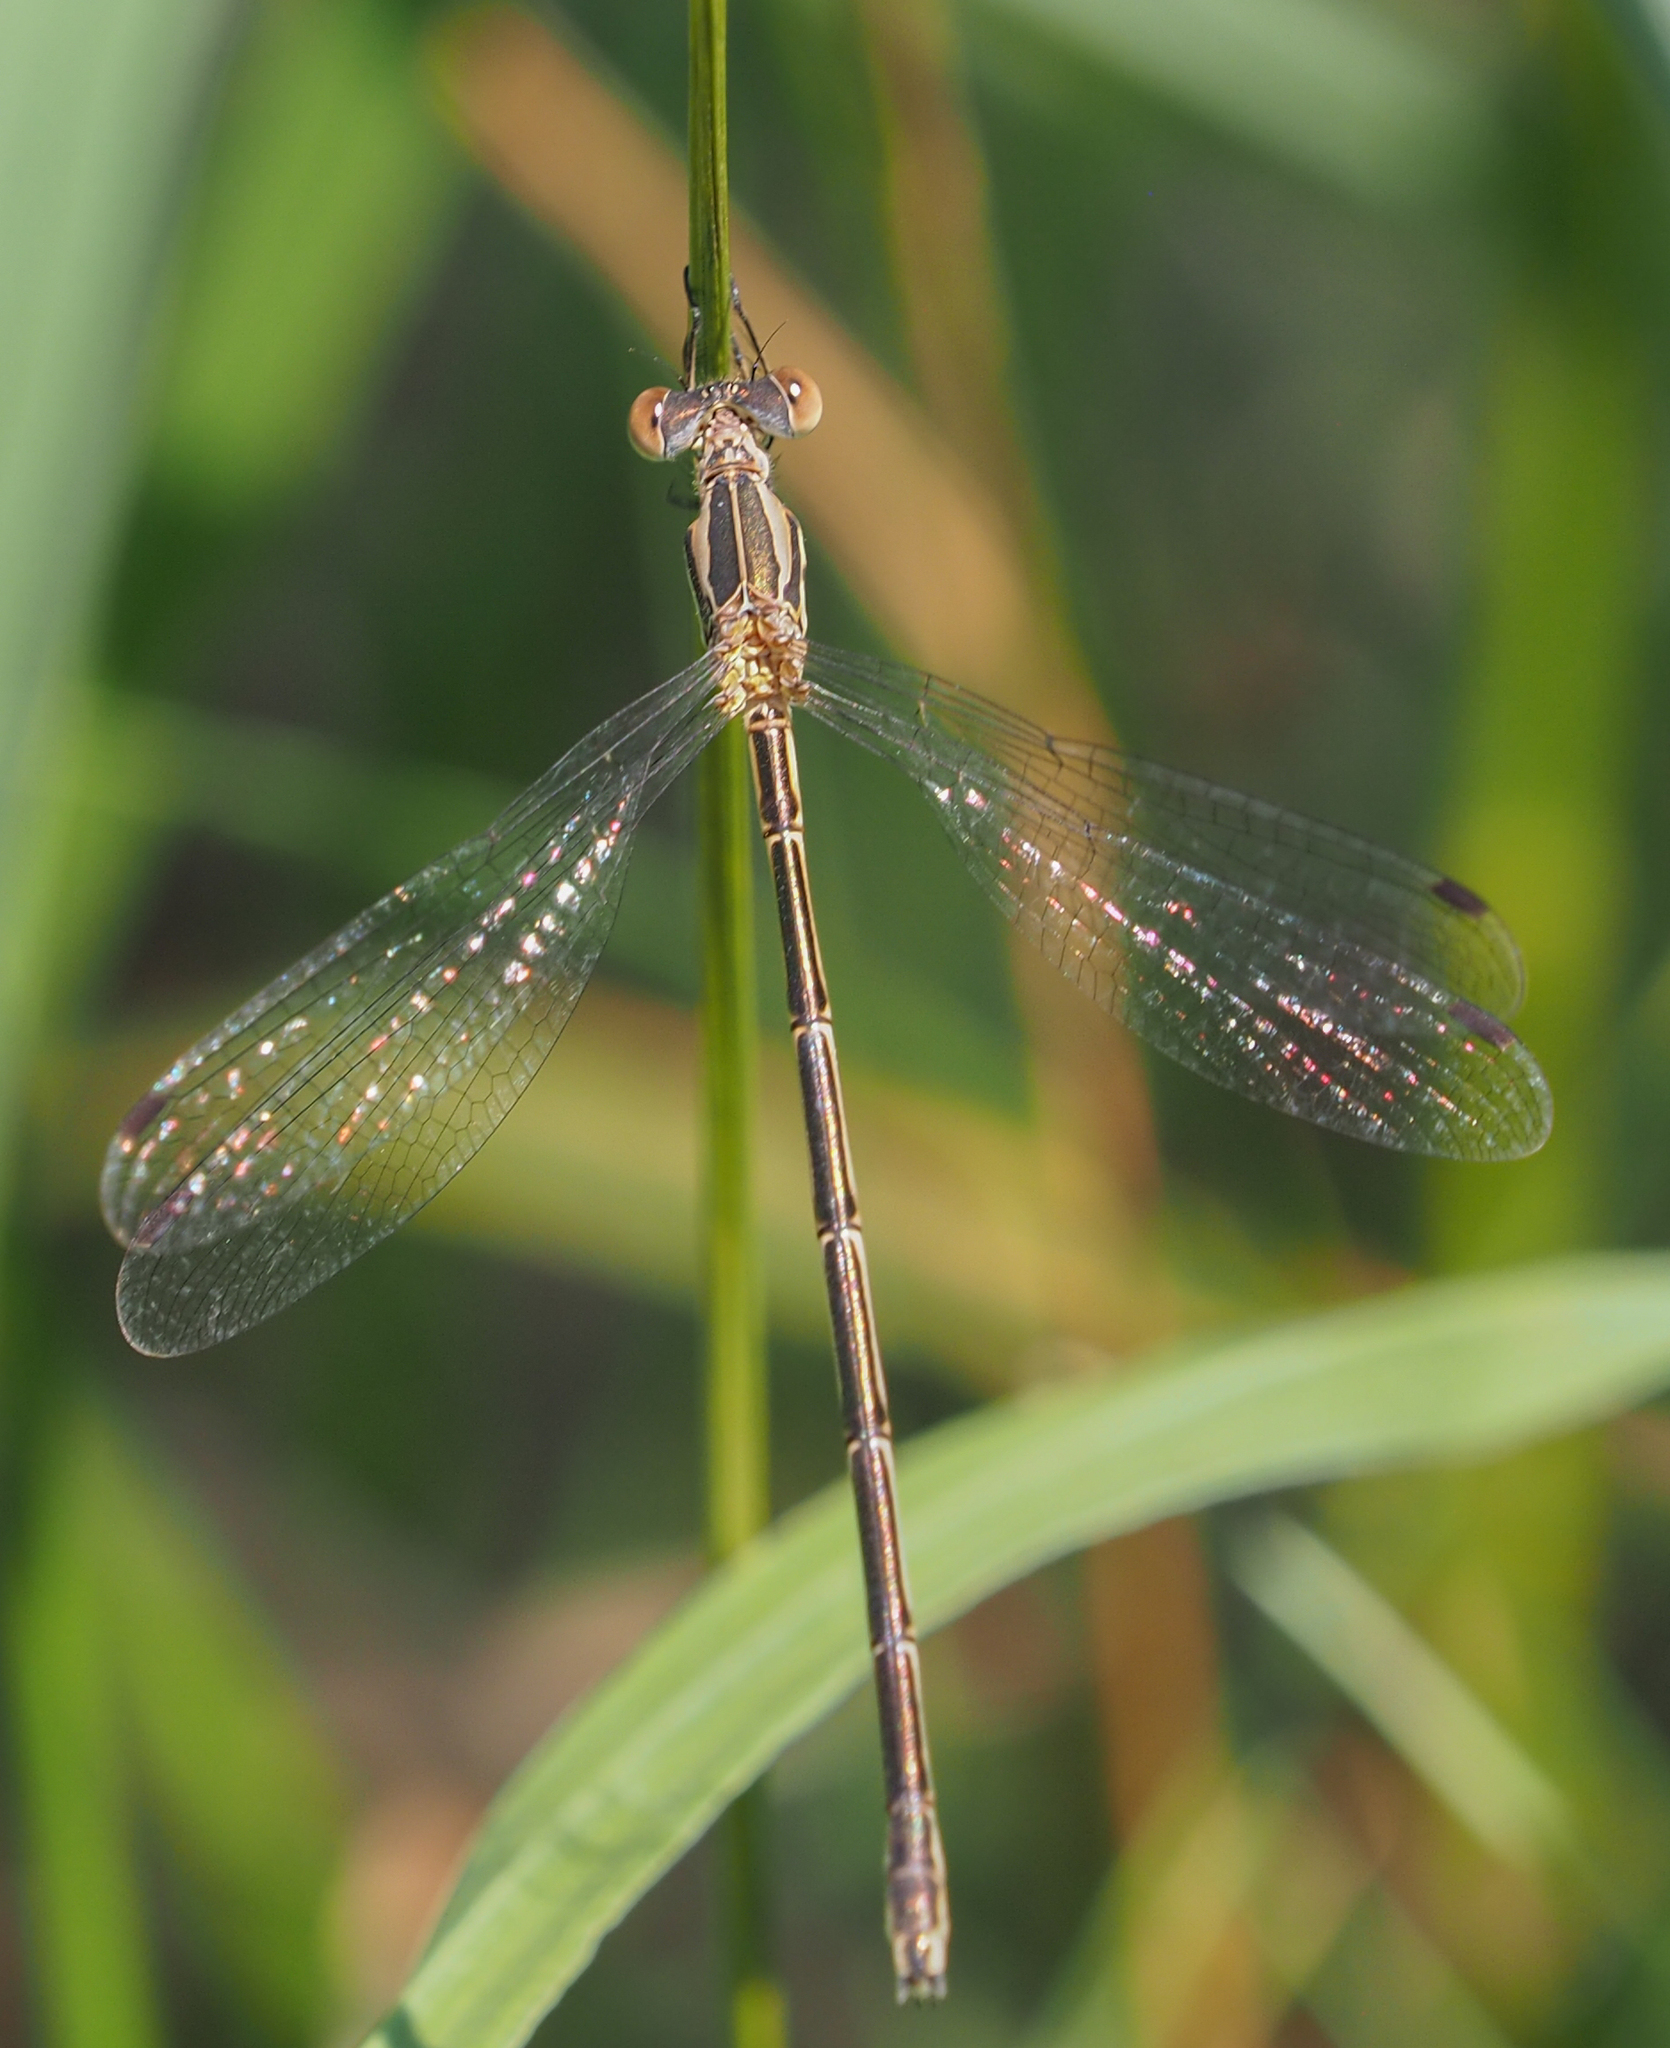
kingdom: Animalia
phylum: Arthropoda
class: Insecta
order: Odonata
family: Lestidae
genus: Lestes
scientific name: Lestes rectangularis
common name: Slender spreadwing
